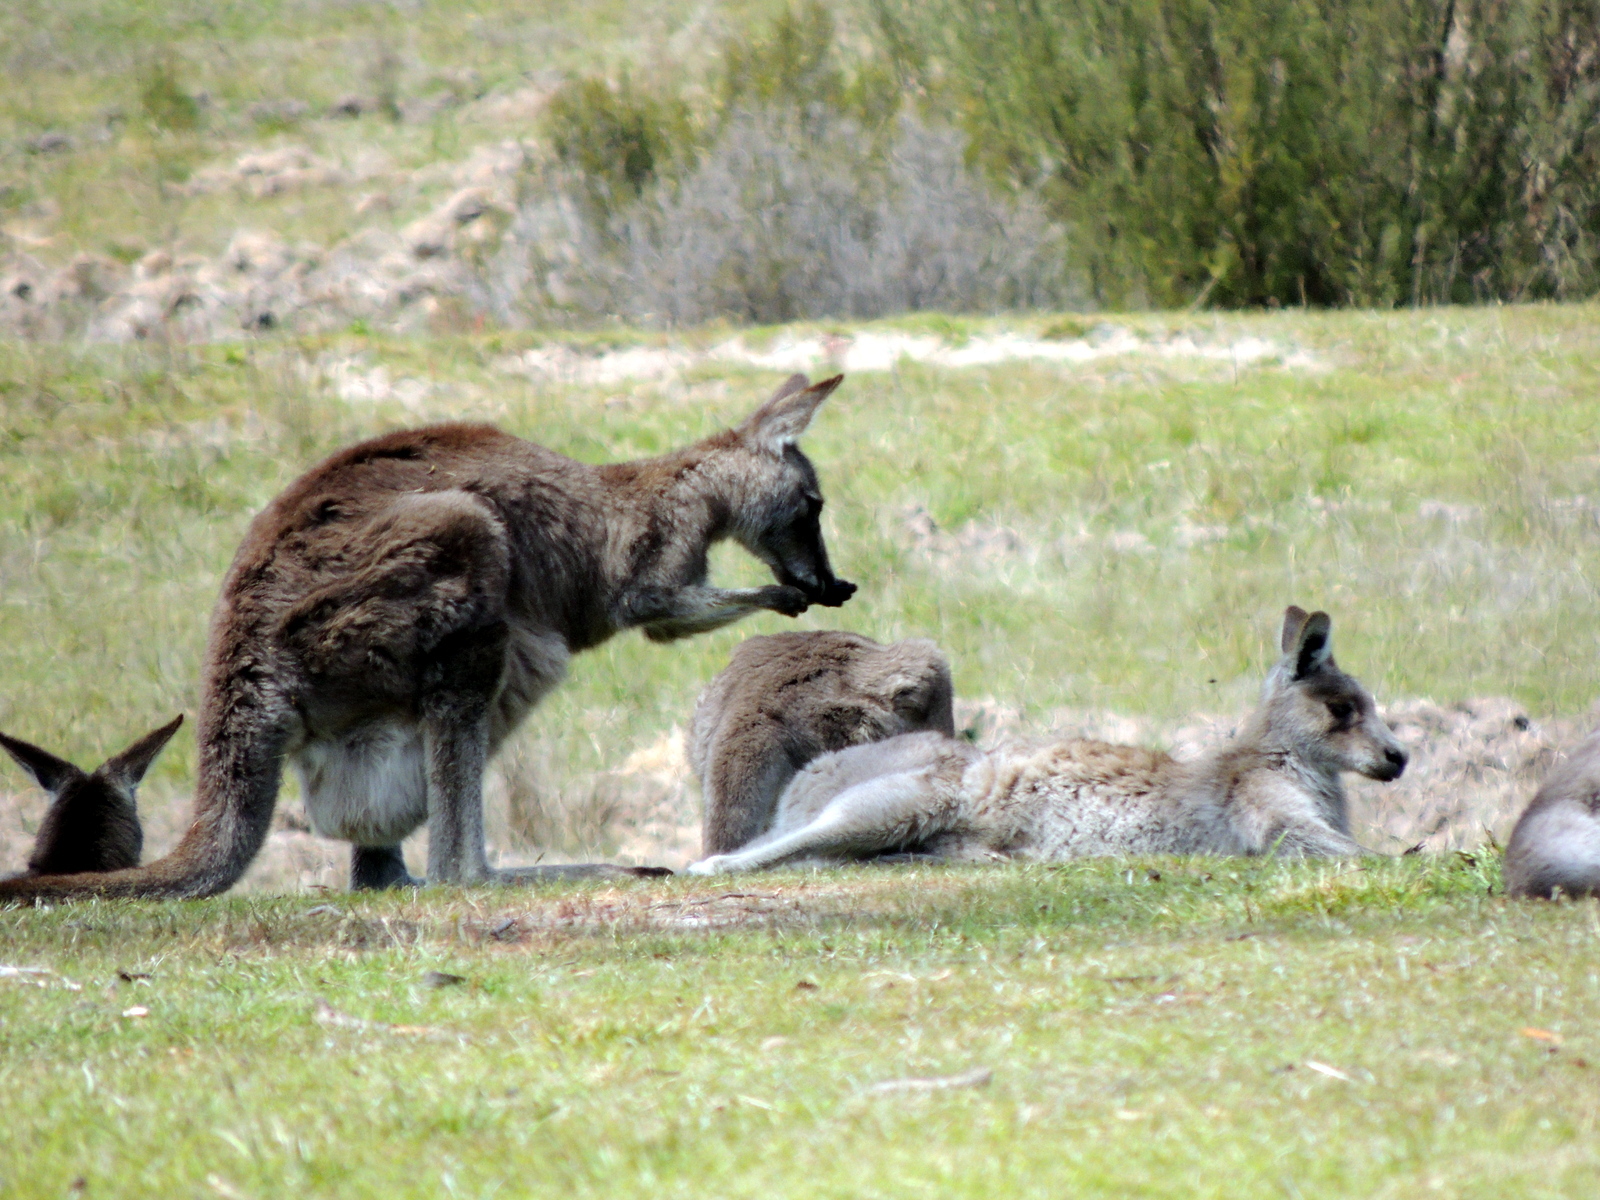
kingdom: Animalia
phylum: Chordata
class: Mammalia
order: Diprotodontia
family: Macropodidae
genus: Macropus
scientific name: Macropus giganteus
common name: Eastern grey kangaroo
